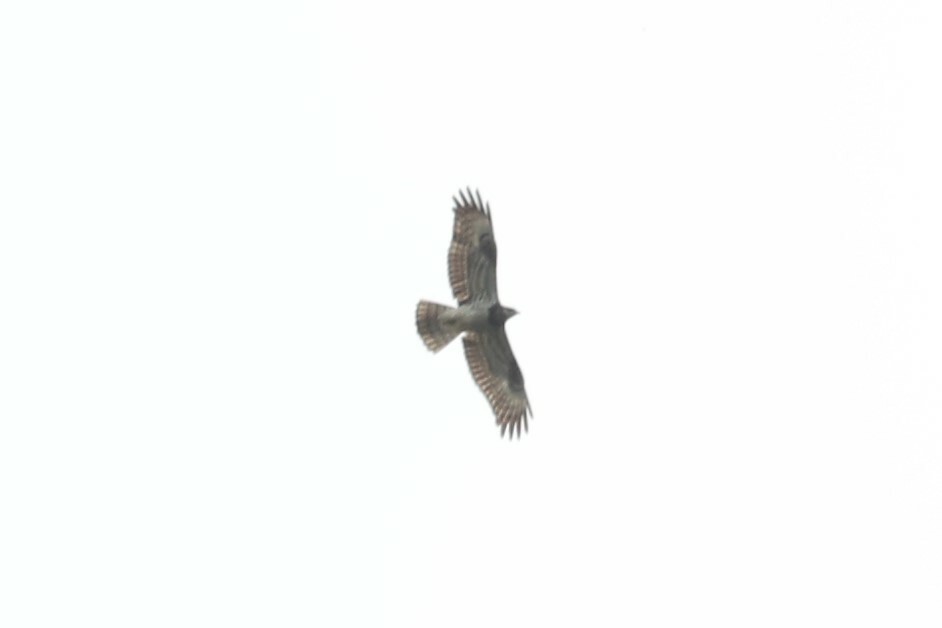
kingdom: Animalia
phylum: Chordata
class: Aves
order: Accipitriformes
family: Accipitridae
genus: Pernis
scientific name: Pernis apivorus
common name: European honey buzzard
